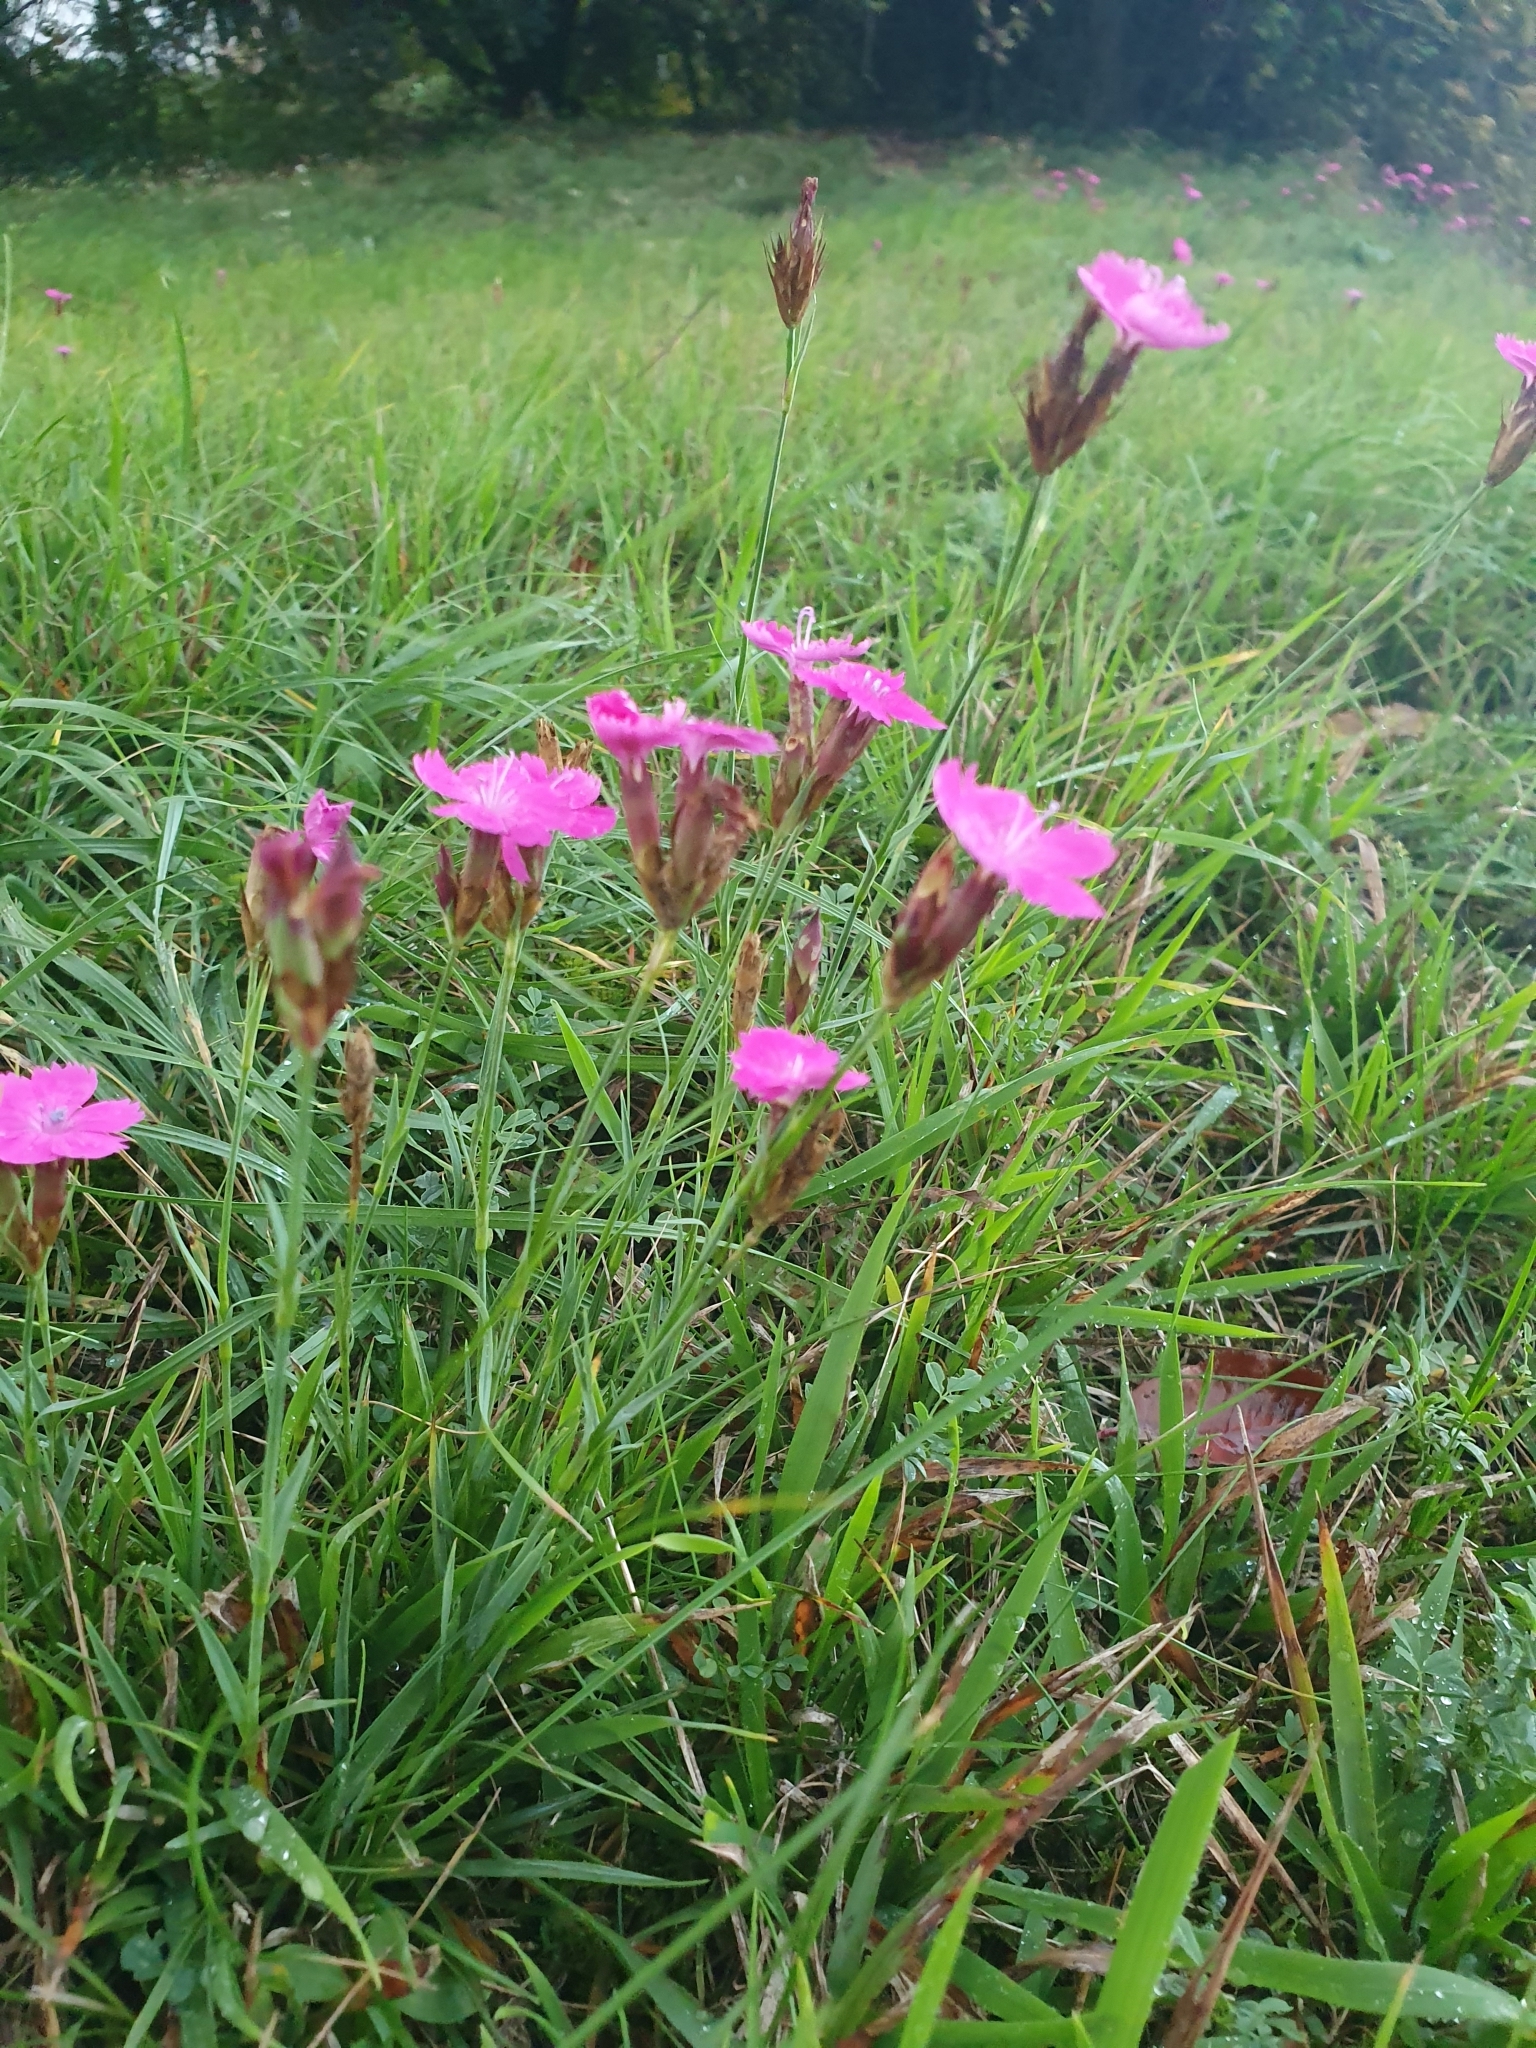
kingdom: Plantae
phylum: Tracheophyta
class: Magnoliopsida
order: Caryophyllales
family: Caryophyllaceae
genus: Dianthus
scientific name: Dianthus carthusianorum
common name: Carthusian pink
